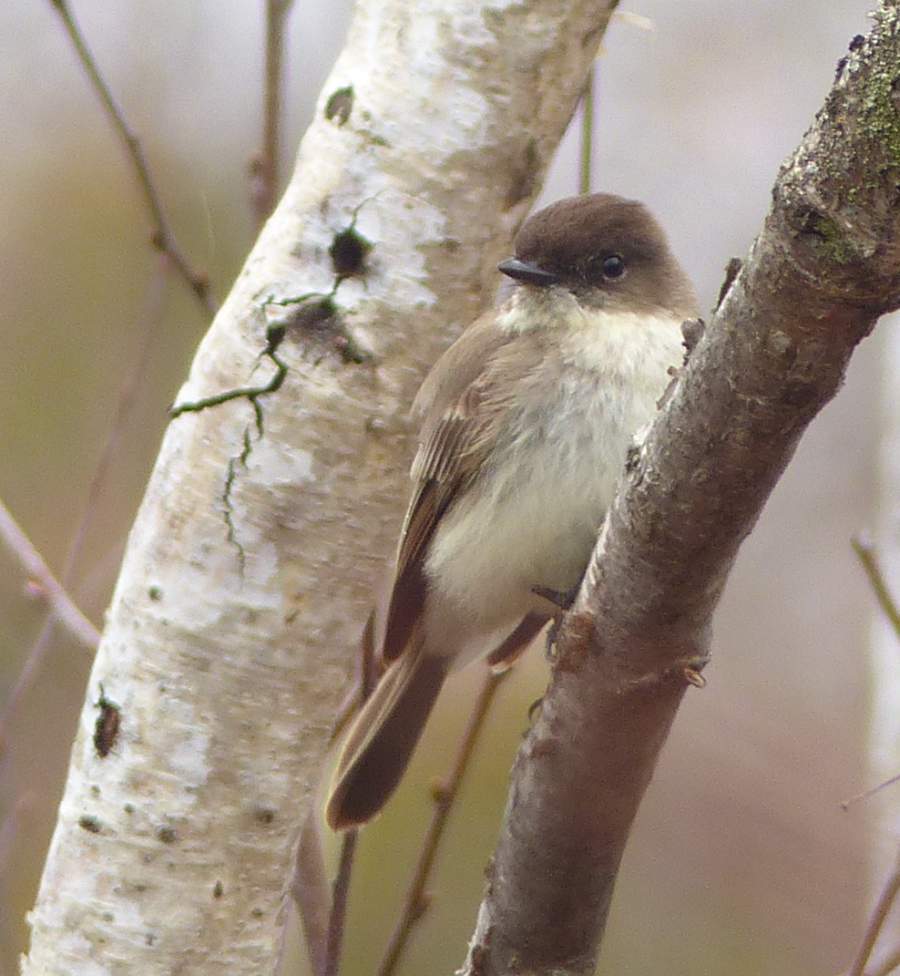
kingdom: Animalia
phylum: Chordata
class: Aves
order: Passeriformes
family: Tyrannidae
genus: Sayornis
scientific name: Sayornis phoebe
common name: Eastern phoebe
